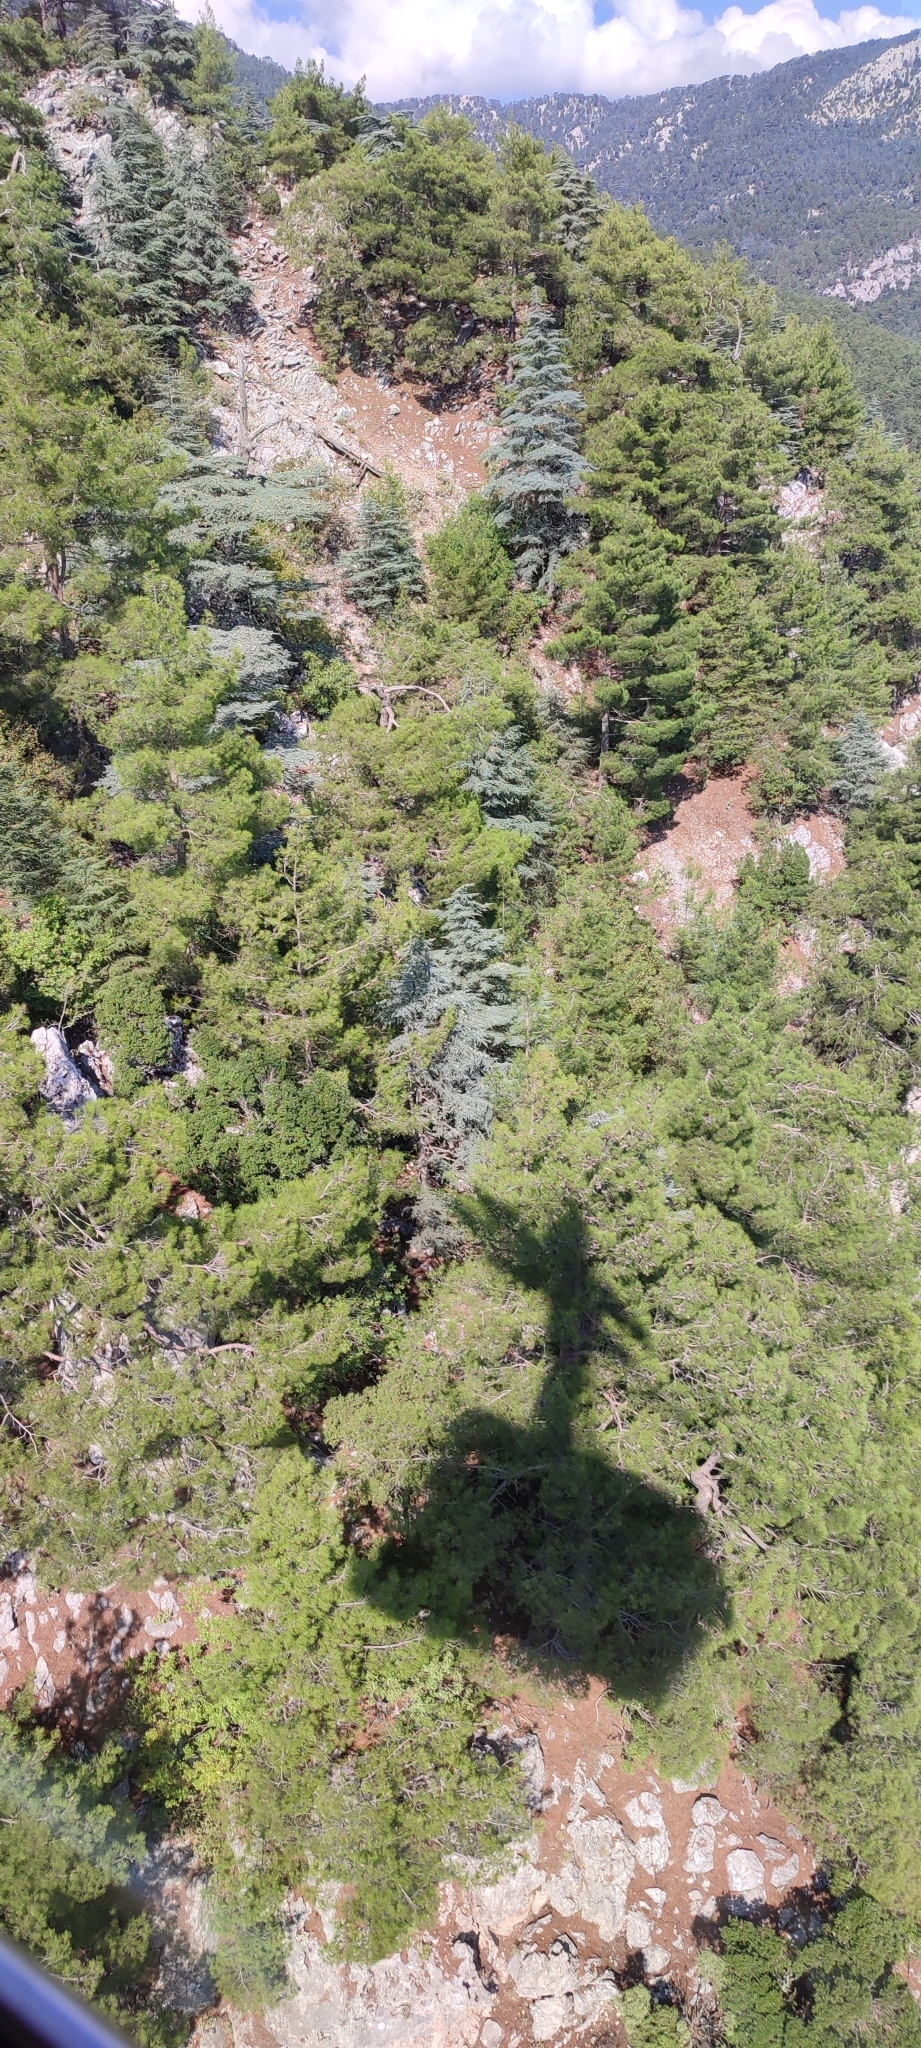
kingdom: Plantae
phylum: Tracheophyta
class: Pinopsida
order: Pinales
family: Pinaceae
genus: Pinus
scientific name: Pinus brutia
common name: Turkish pine
